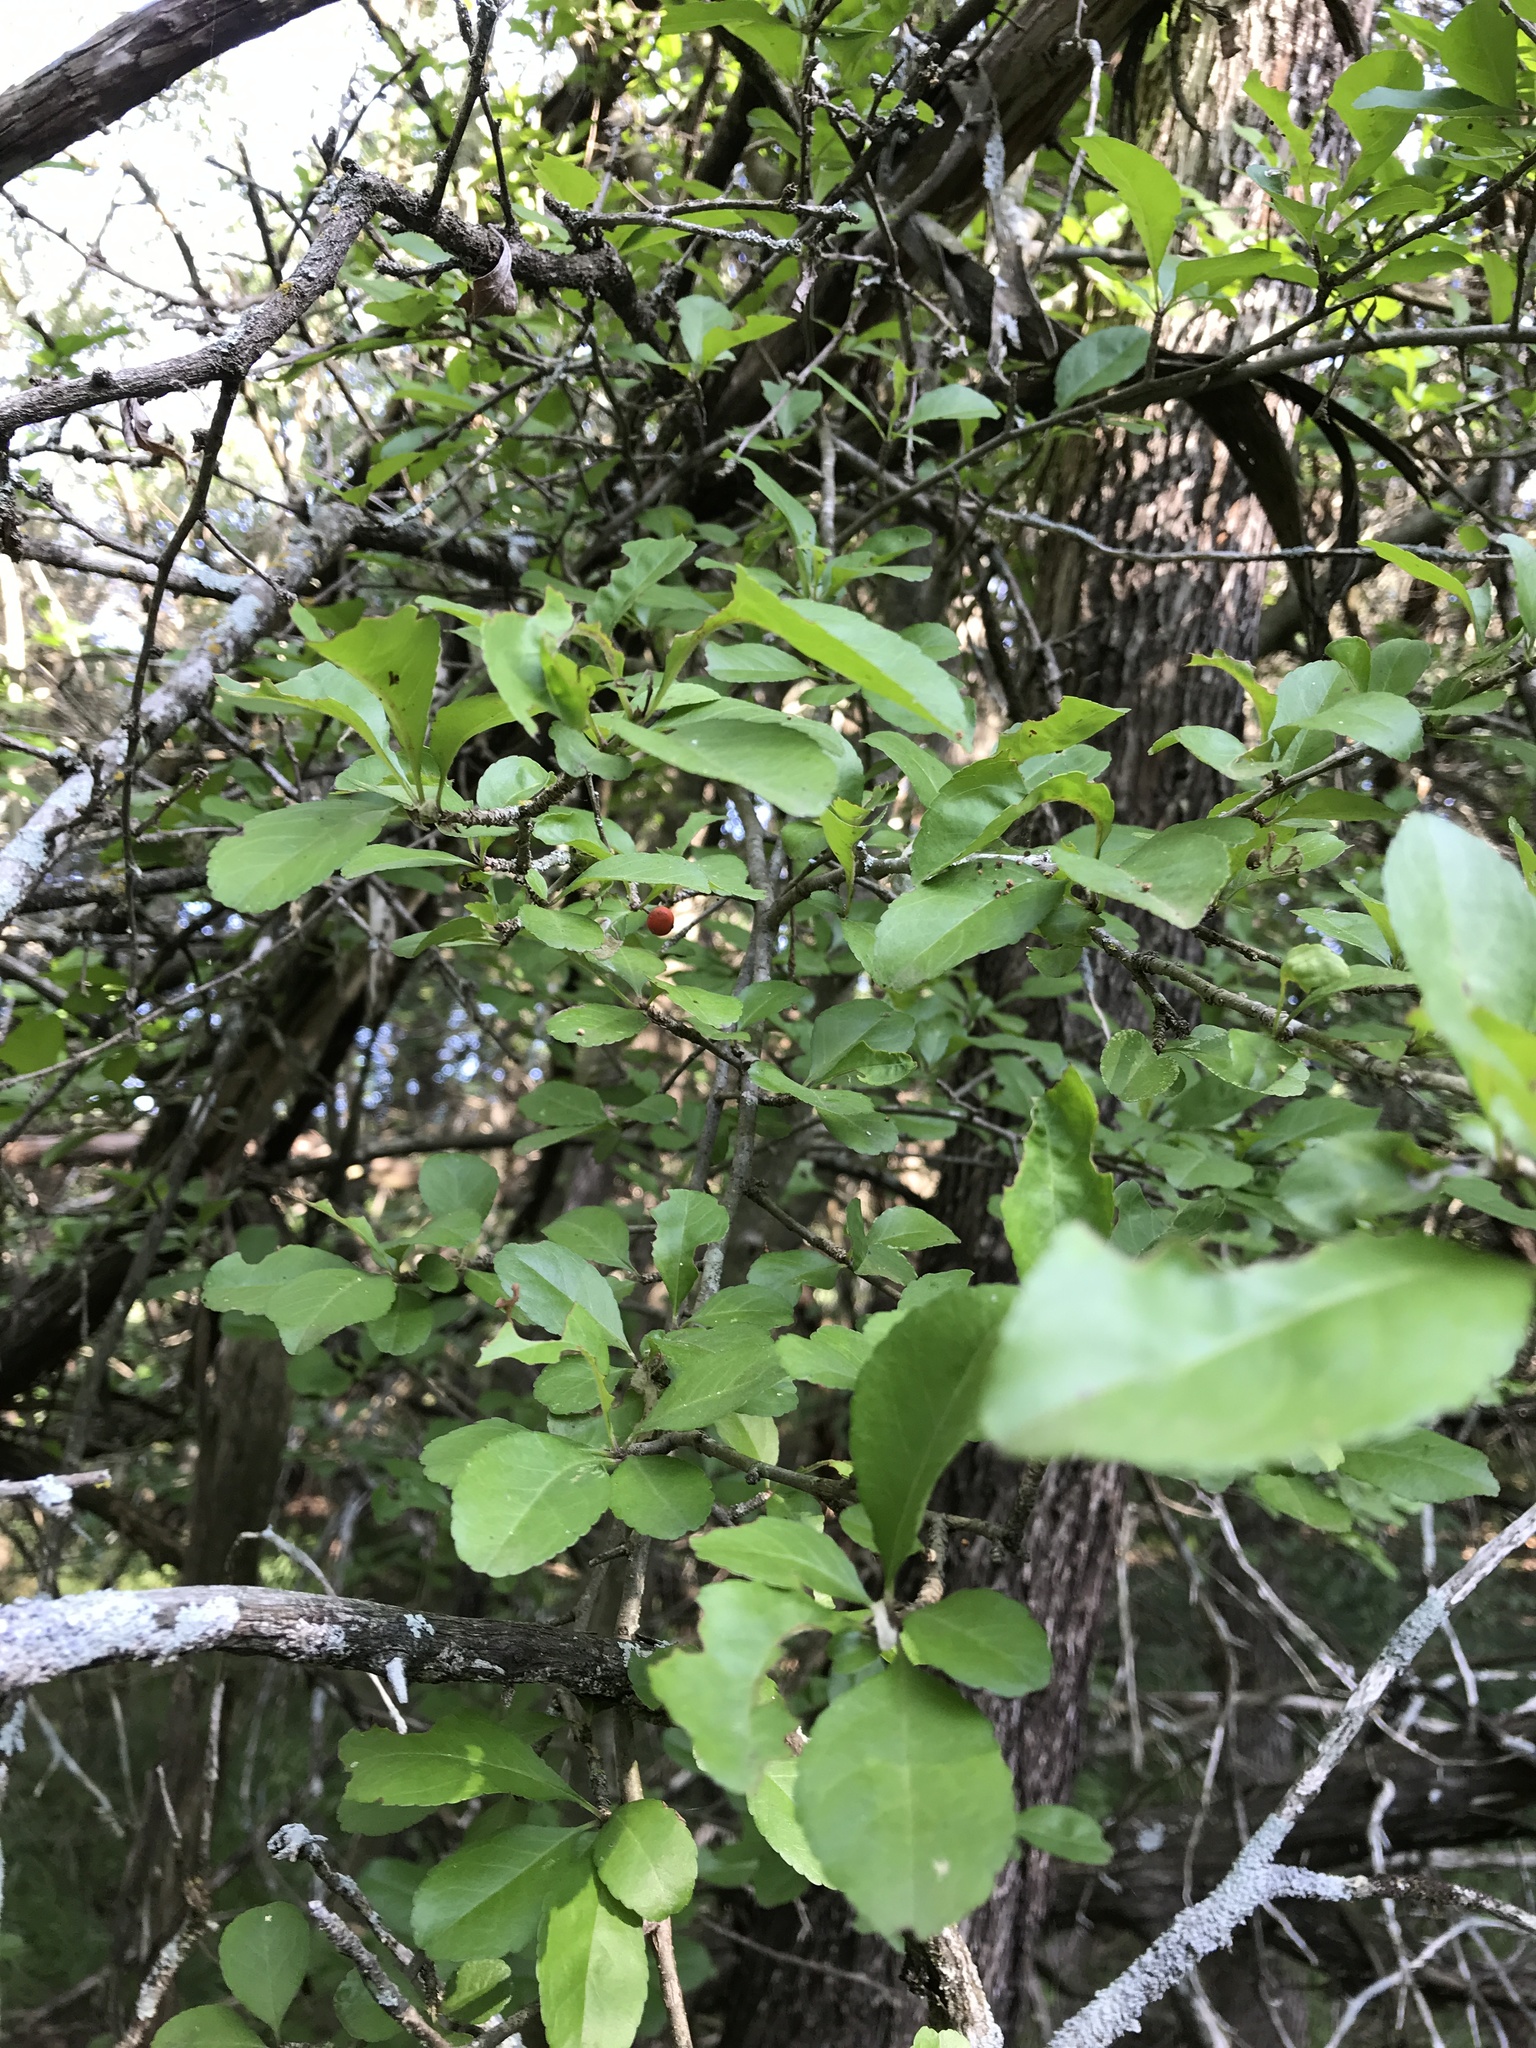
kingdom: Plantae
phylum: Tracheophyta
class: Magnoliopsida
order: Aquifoliales
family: Aquifoliaceae
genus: Ilex
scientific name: Ilex decidua
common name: Possum-haw
